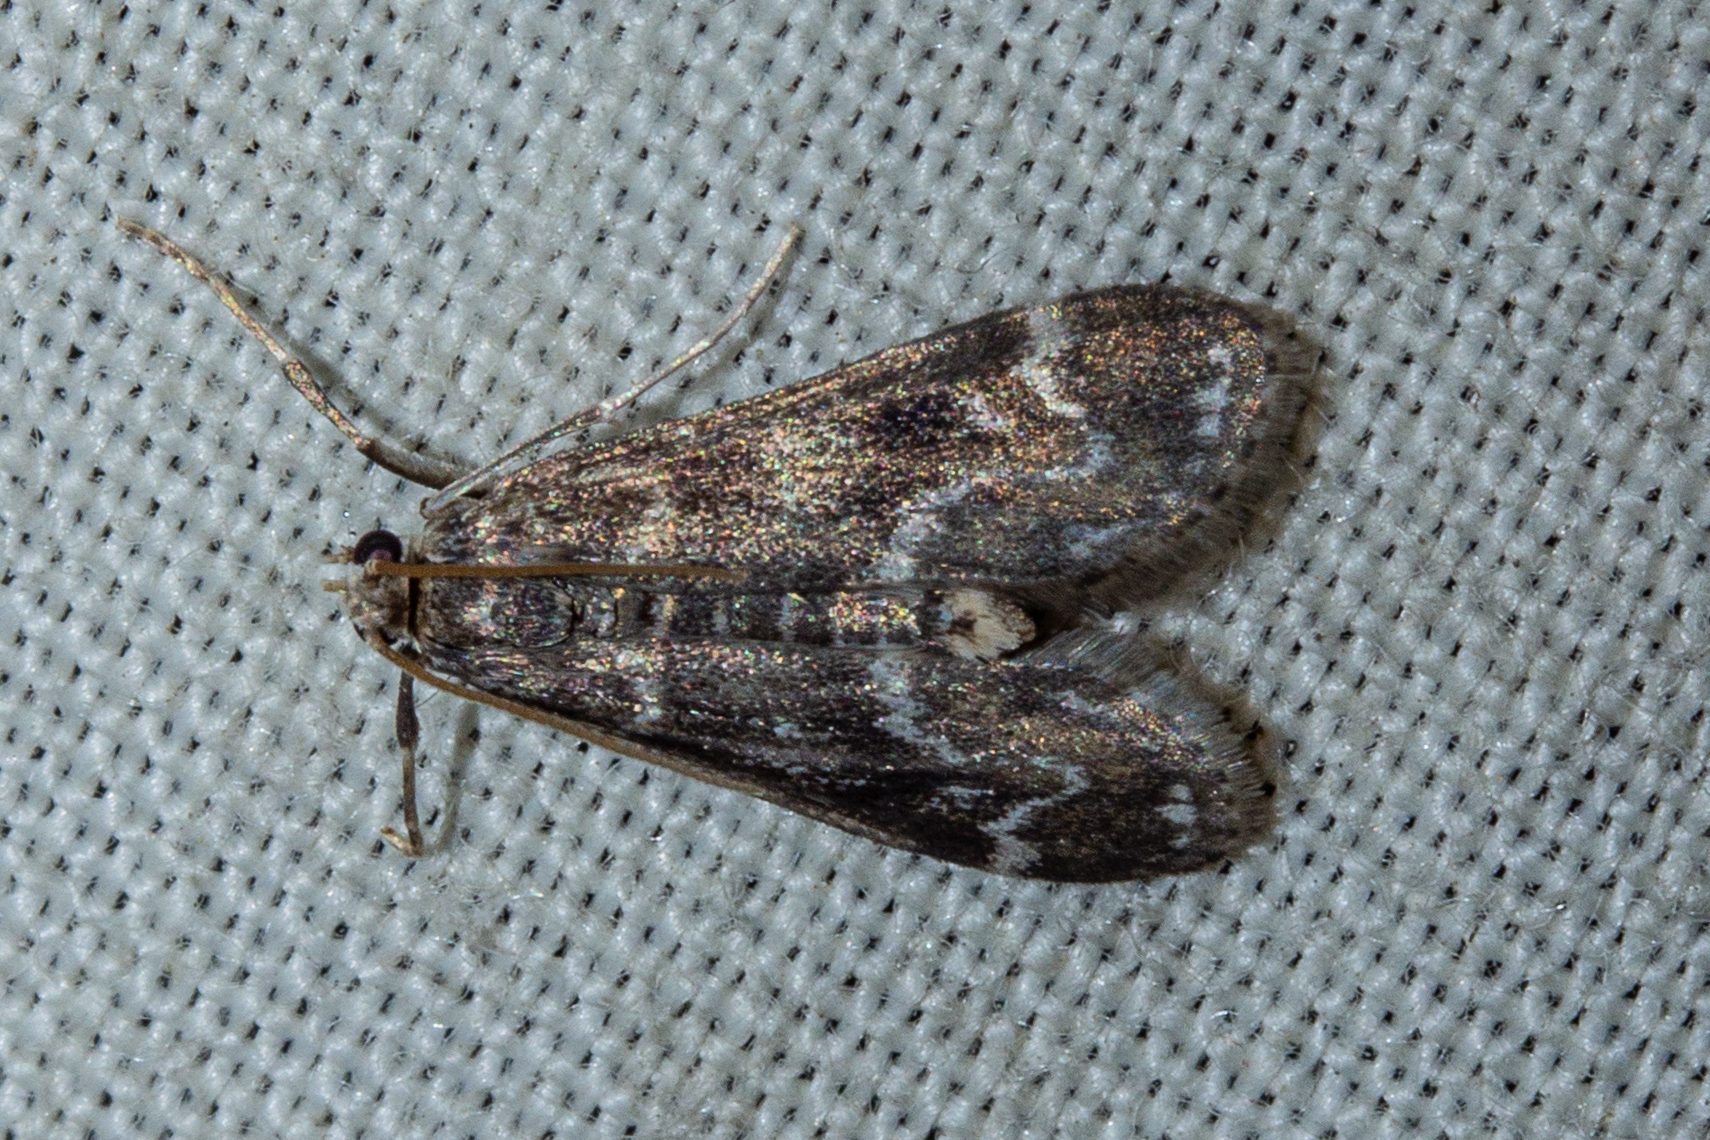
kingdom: Animalia
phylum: Arthropoda
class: Insecta
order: Lepidoptera
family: Crambidae
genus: Hygraula
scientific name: Hygraula nitens
